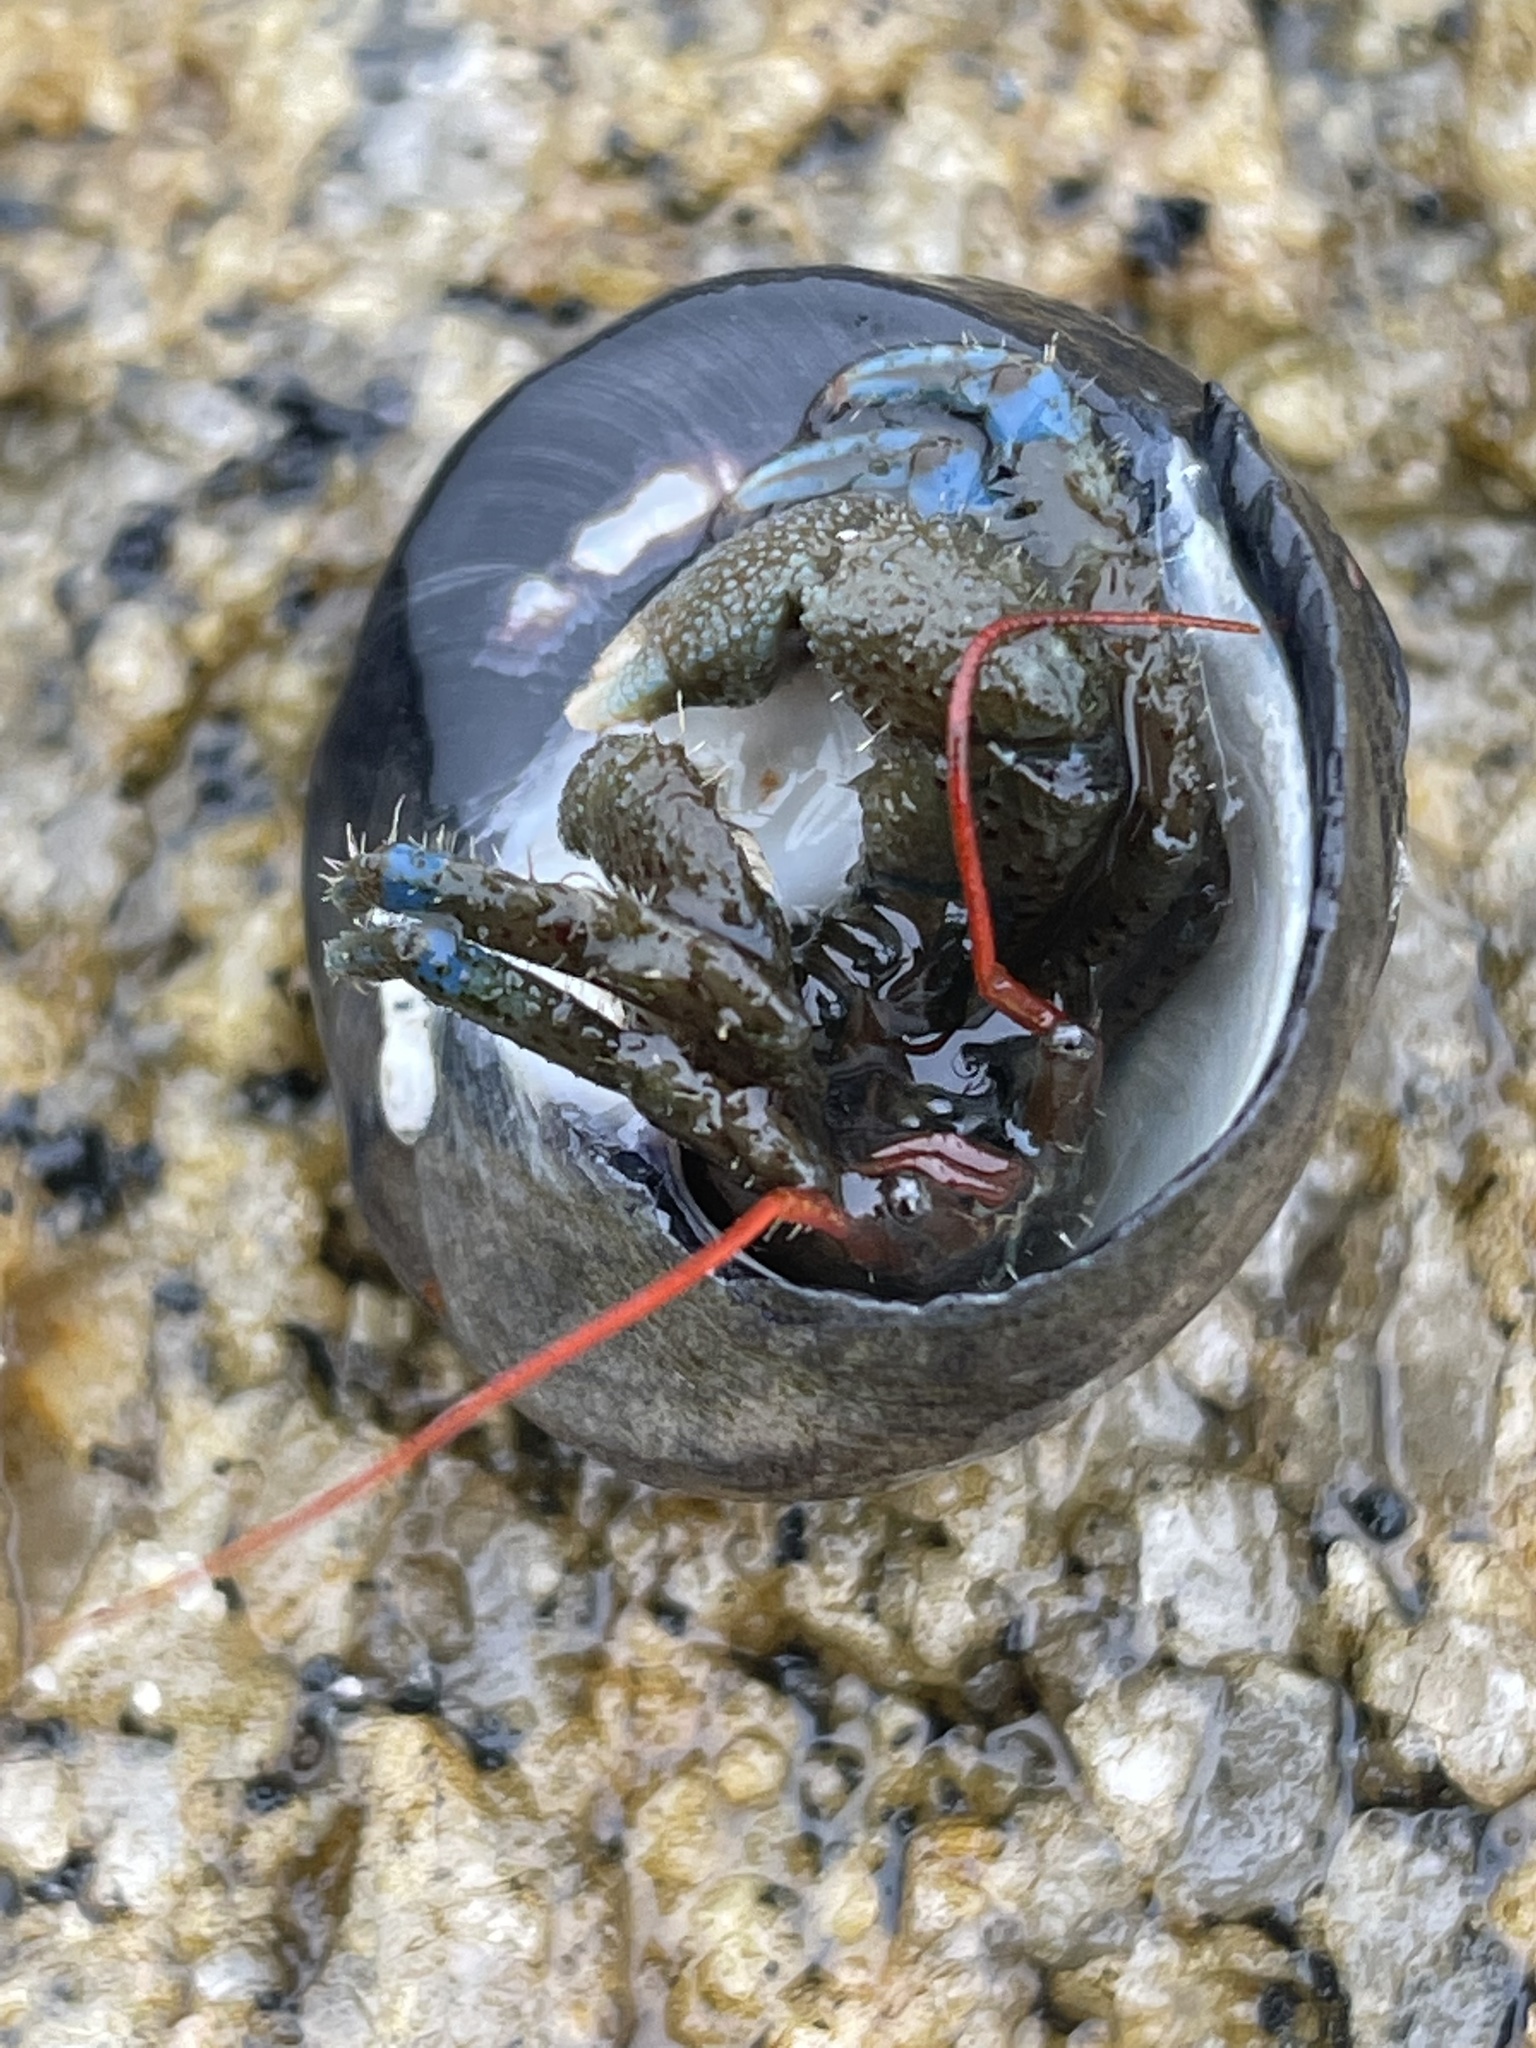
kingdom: Animalia
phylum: Arthropoda
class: Malacostraca
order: Decapoda
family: Paguridae
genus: Pagurus
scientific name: Pagurus samuelis
